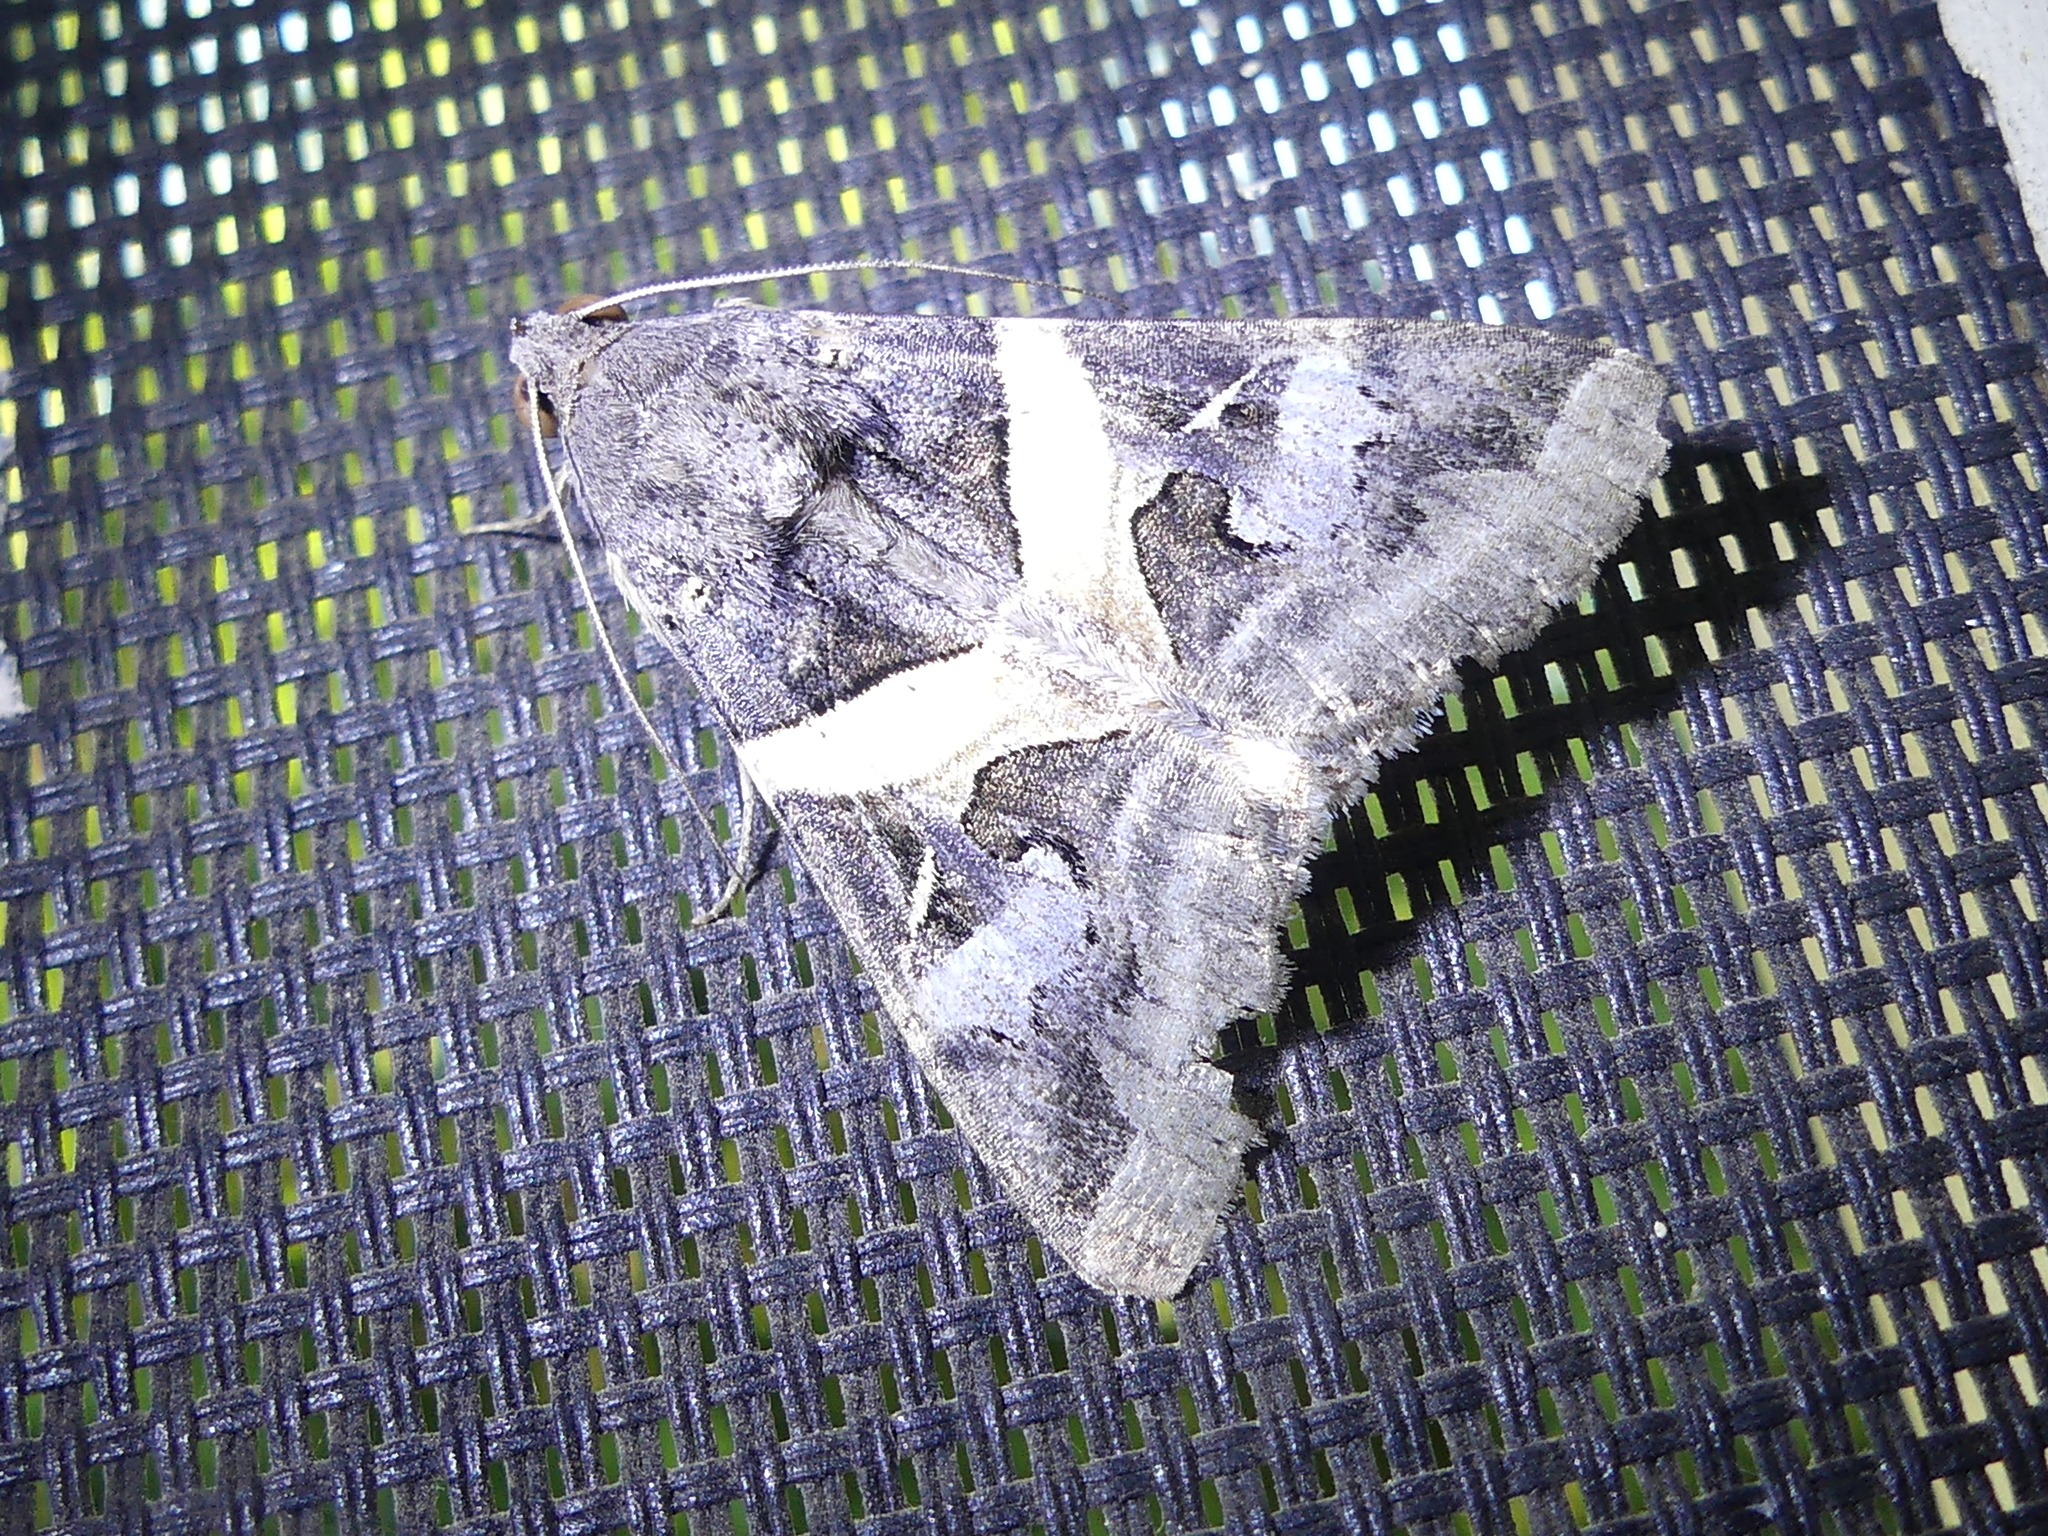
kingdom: Animalia
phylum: Arthropoda
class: Insecta
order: Lepidoptera
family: Erebidae
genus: Melipotis
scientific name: Melipotis indomita
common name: Moth
